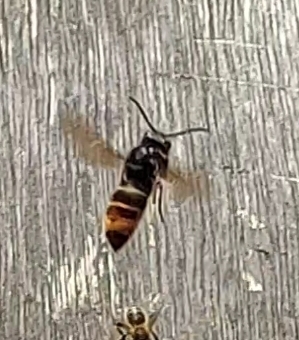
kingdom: Animalia
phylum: Arthropoda
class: Insecta
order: Hymenoptera
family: Vespidae
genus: Vespa
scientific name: Vespa velutina
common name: Asian hornet
